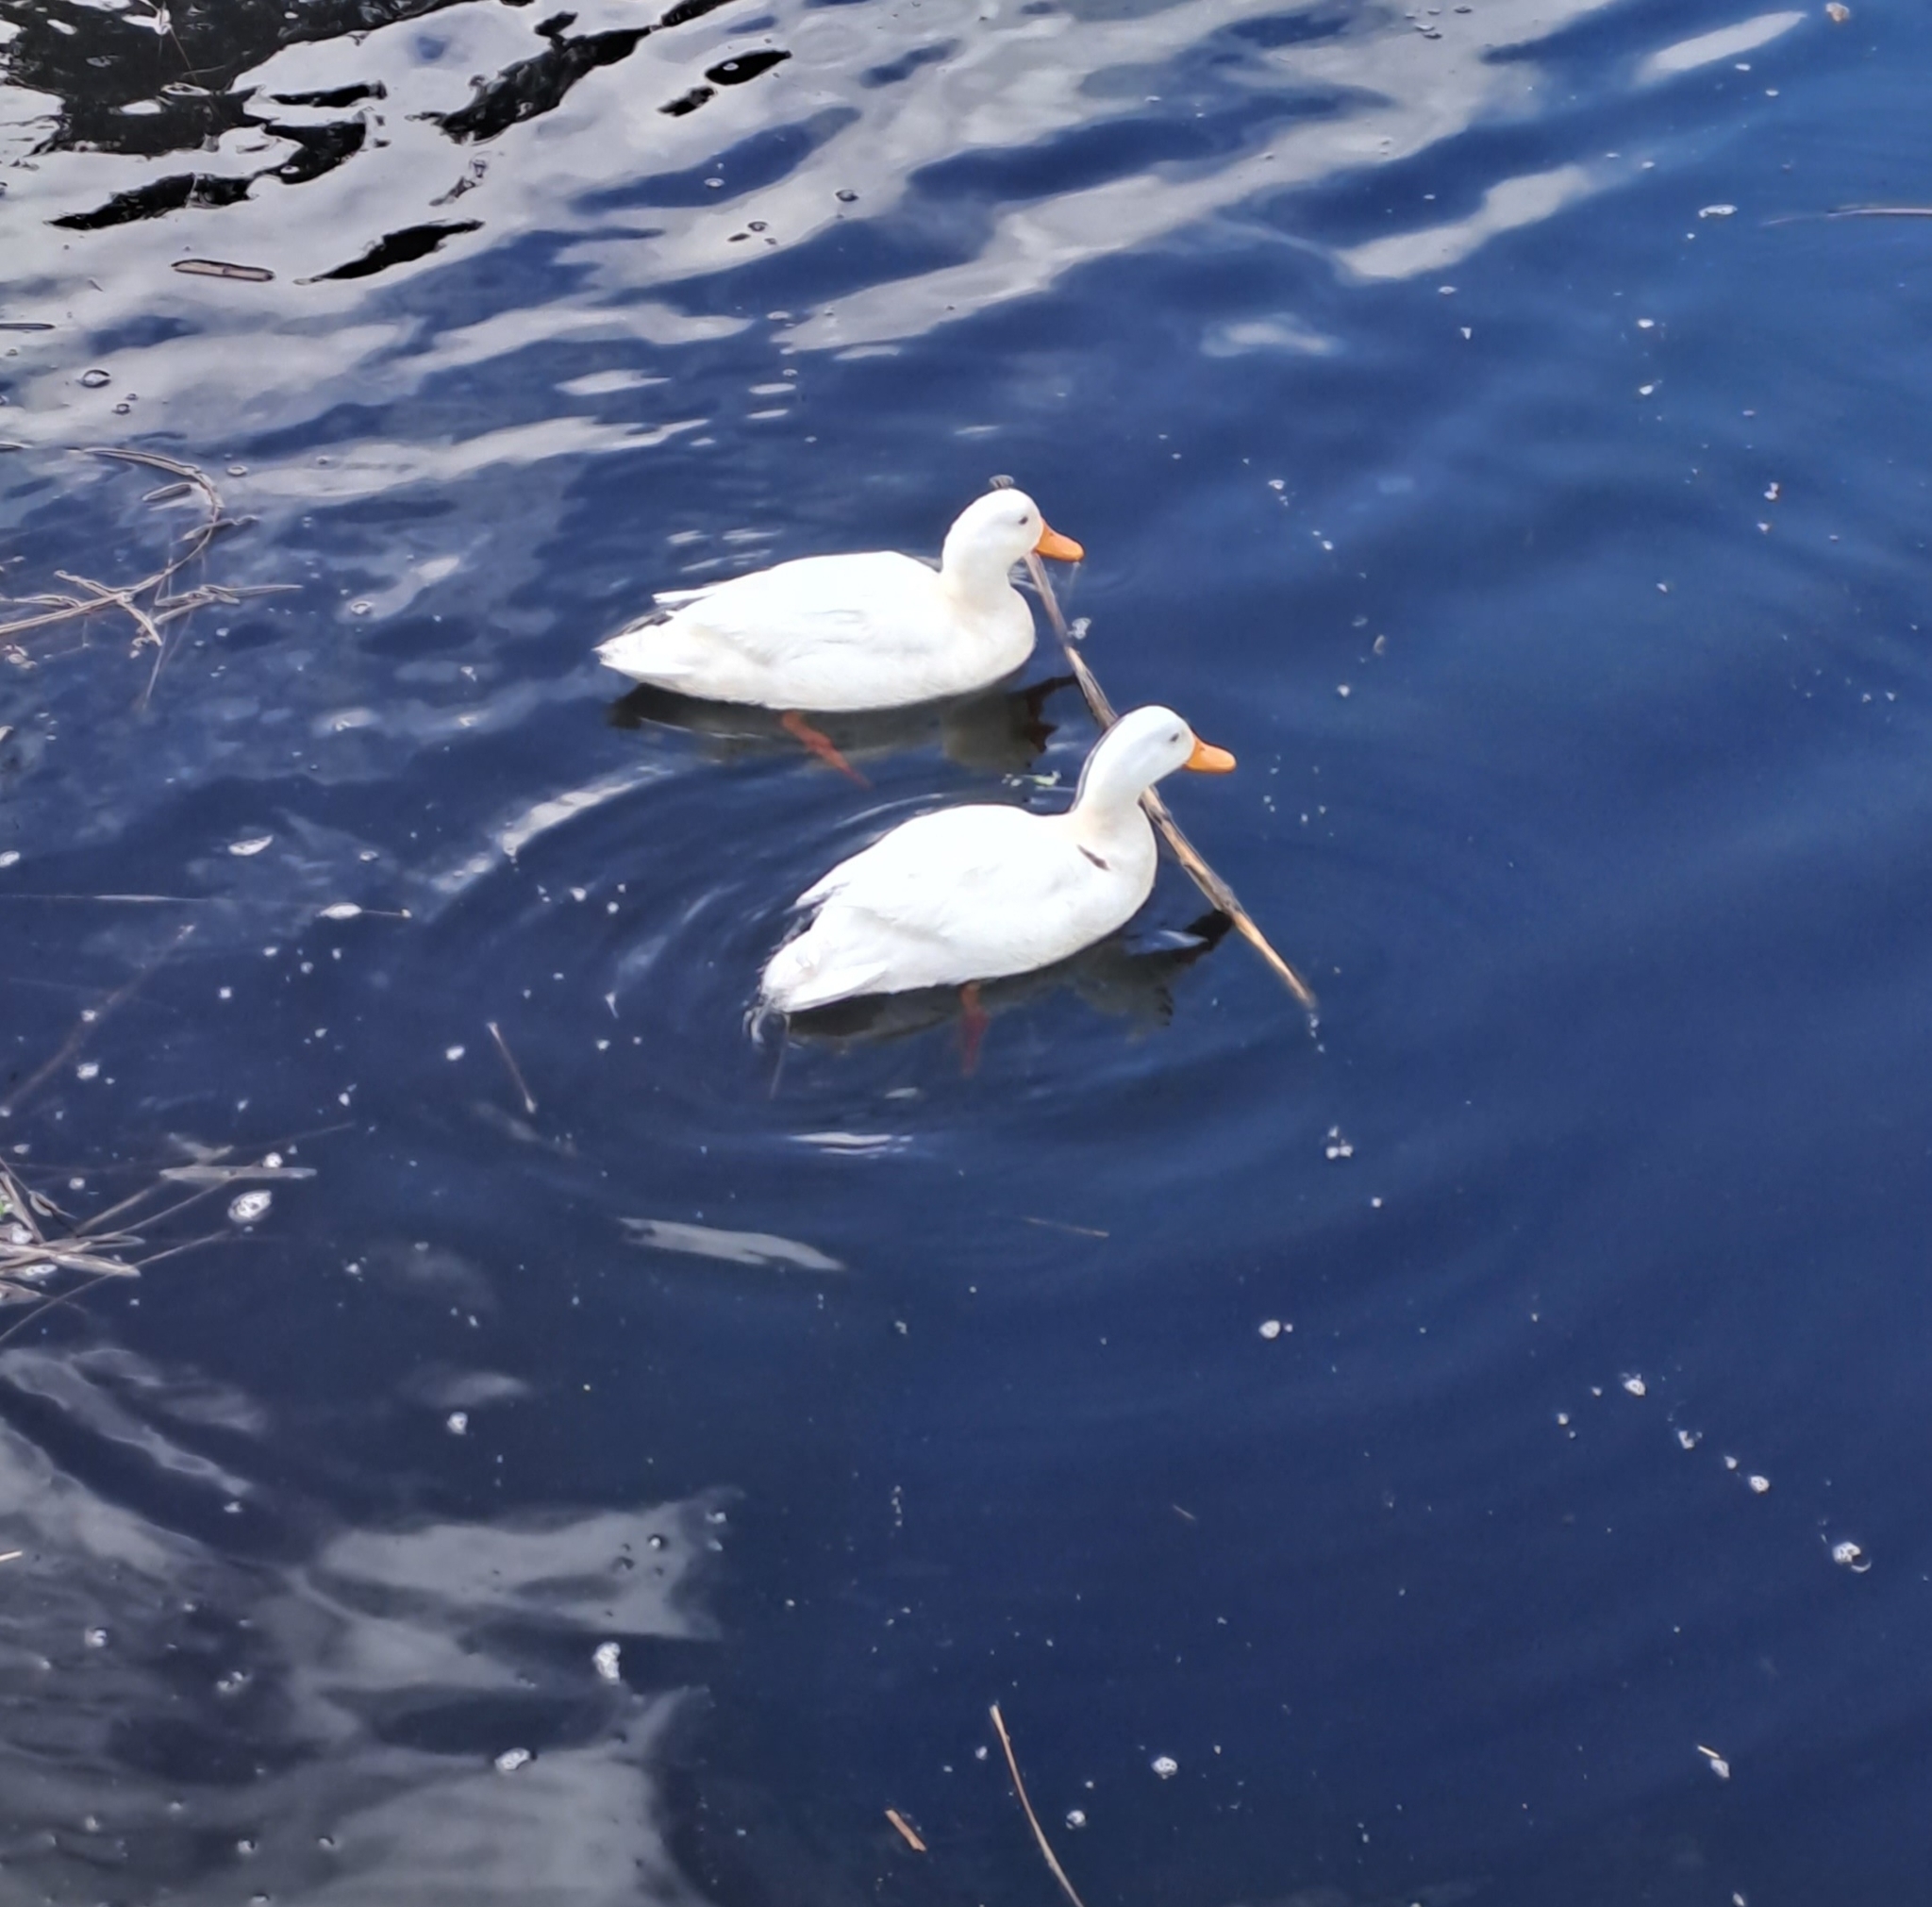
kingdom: Animalia
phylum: Chordata
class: Aves
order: Anseriformes
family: Anatidae
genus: Anas
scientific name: Anas platyrhynchos
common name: Mallard
